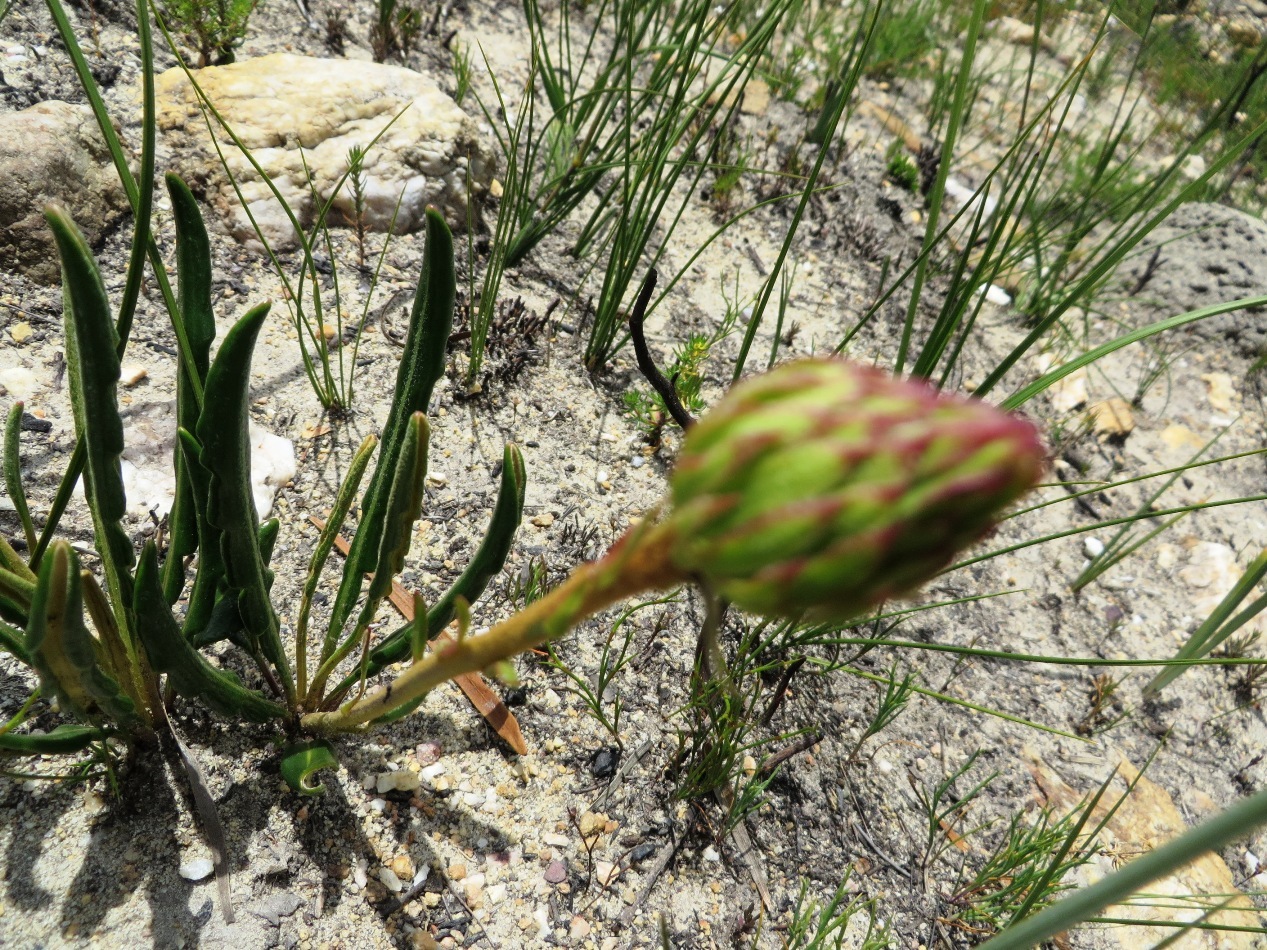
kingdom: Plantae
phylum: Tracheophyta
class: Magnoliopsida
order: Asterales
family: Asteraceae
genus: Gerbera
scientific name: Gerbera tomentosa
